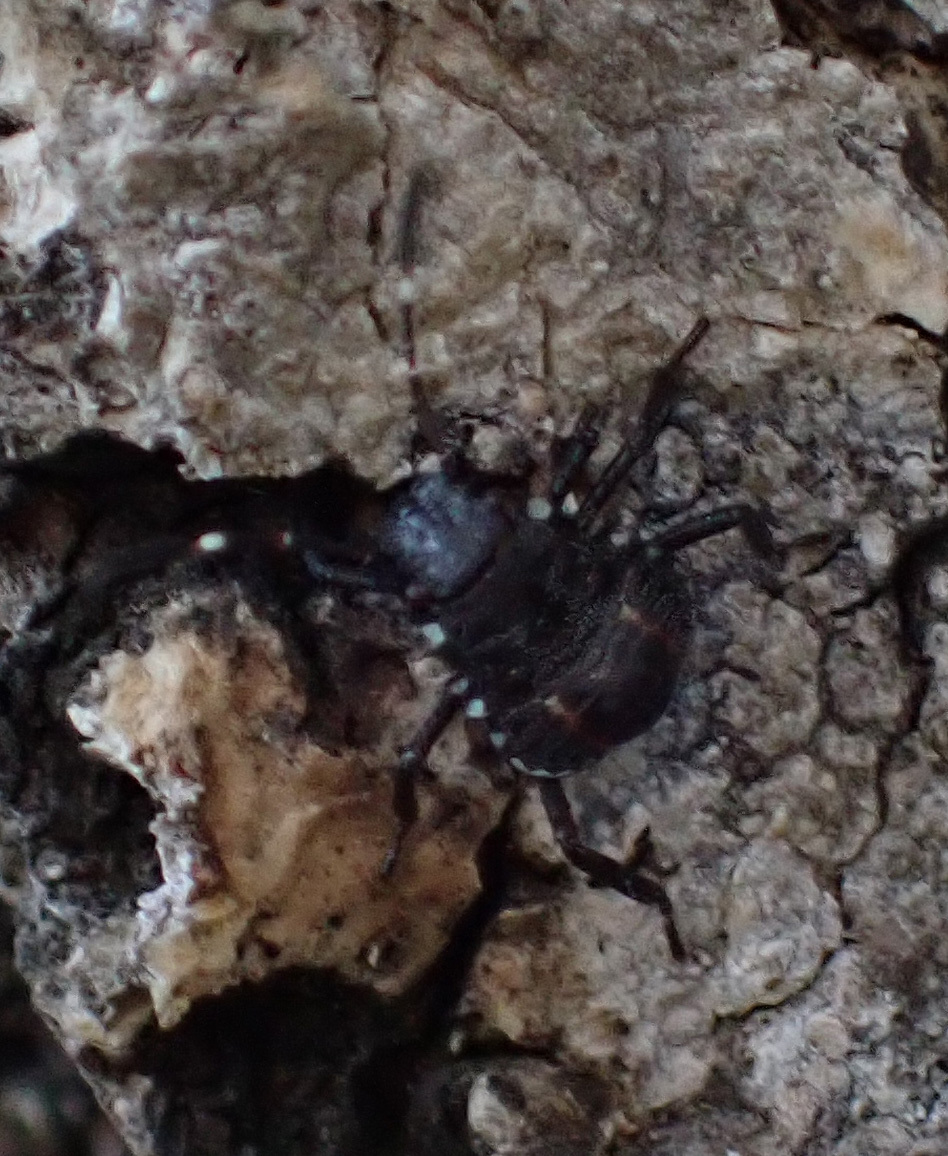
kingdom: Animalia
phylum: Arthropoda
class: Insecta
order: Hemiptera
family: Pentatomidae
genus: Halyomorpha
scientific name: Halyomorpha halys
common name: Brown marmorated stink bug
